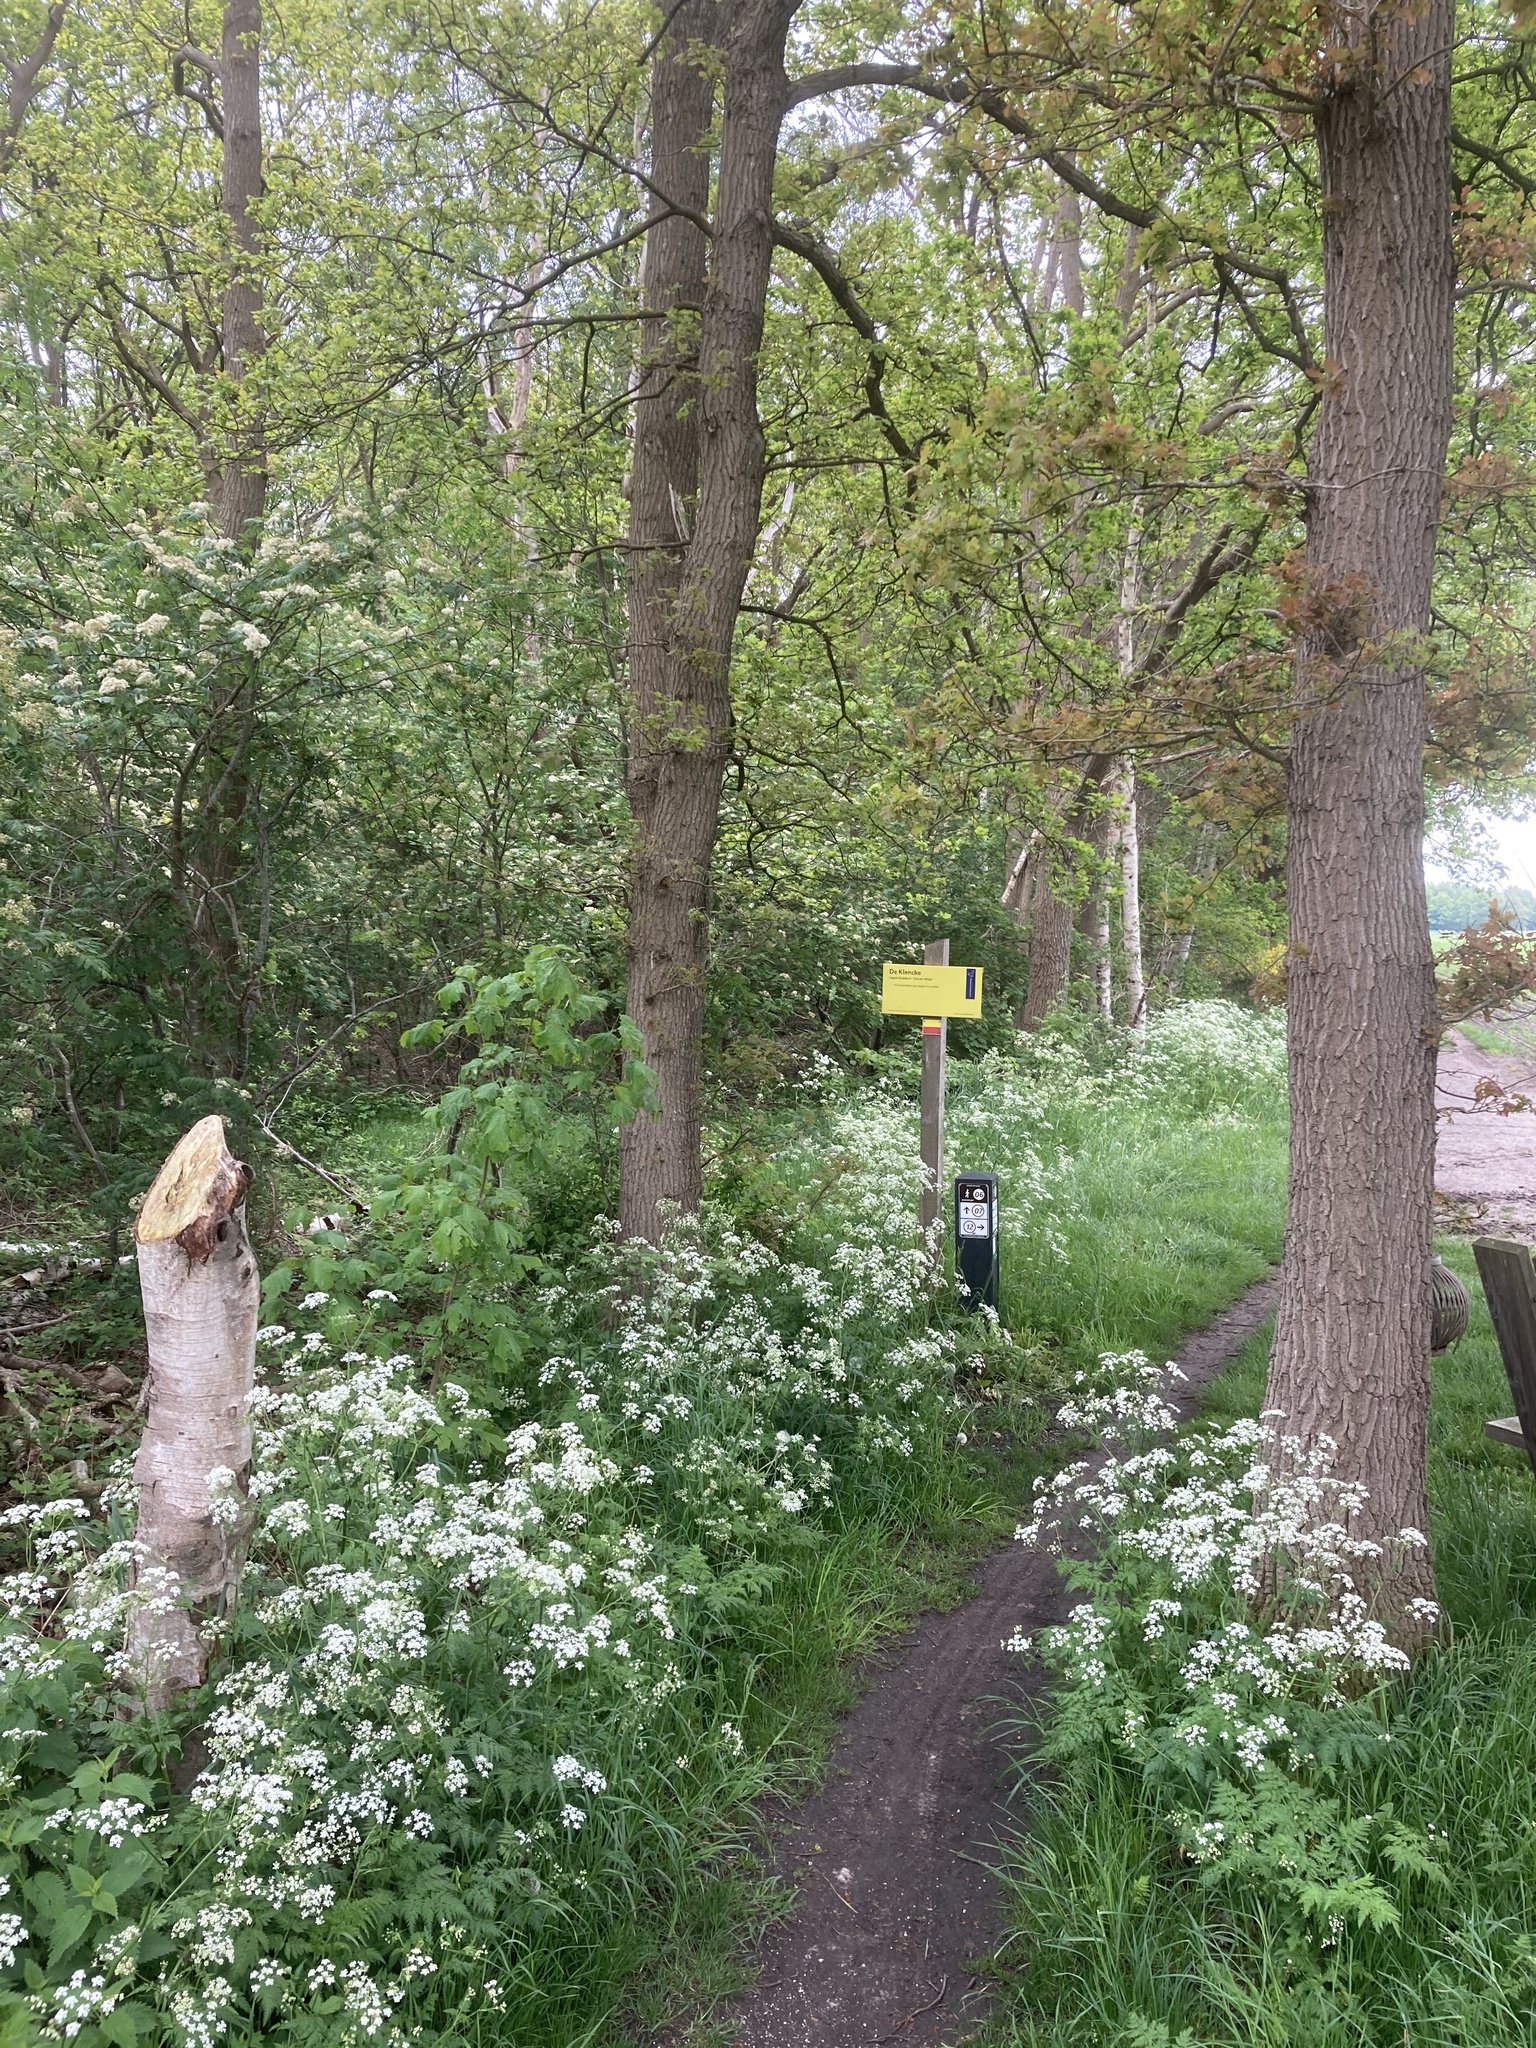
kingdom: Plantae
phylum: Tracheophyta
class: Magnoliopsida
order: Apiales
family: Apiaceae
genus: Anthriscus
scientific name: Anthriscus sylvestris
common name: Cow parsley
